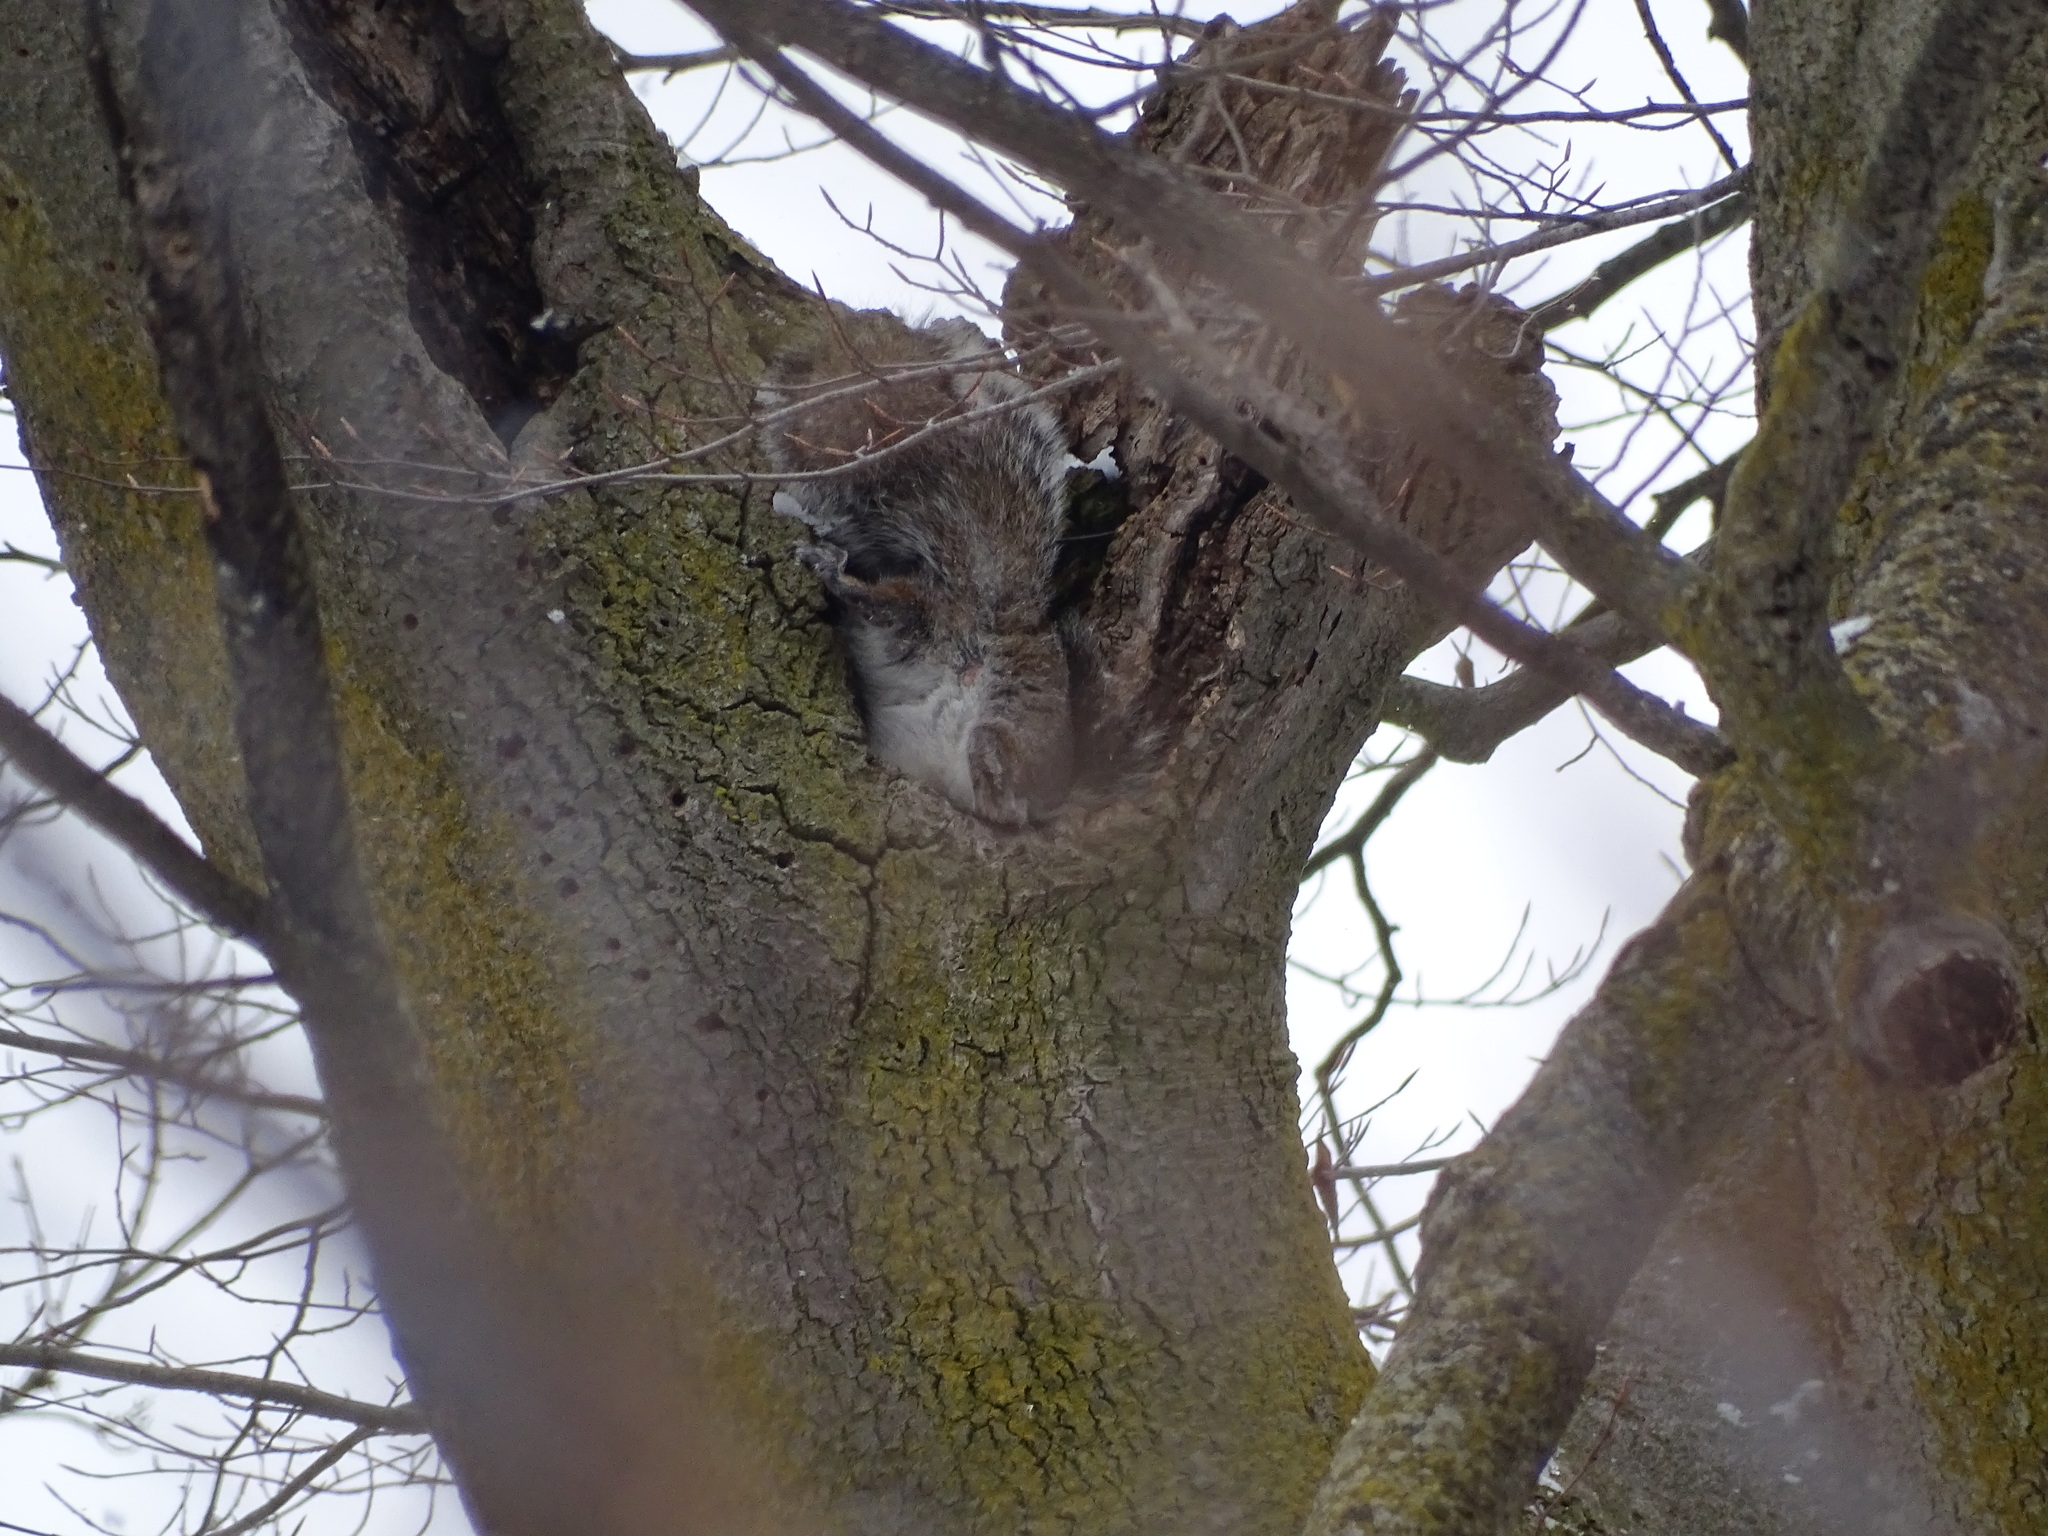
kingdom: Animalia
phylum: Chordata
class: Mammalia
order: Rodentia
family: Sciuridae
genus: Sciurus
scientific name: Sciurus carolinensis
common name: Eastern gray squirrel
